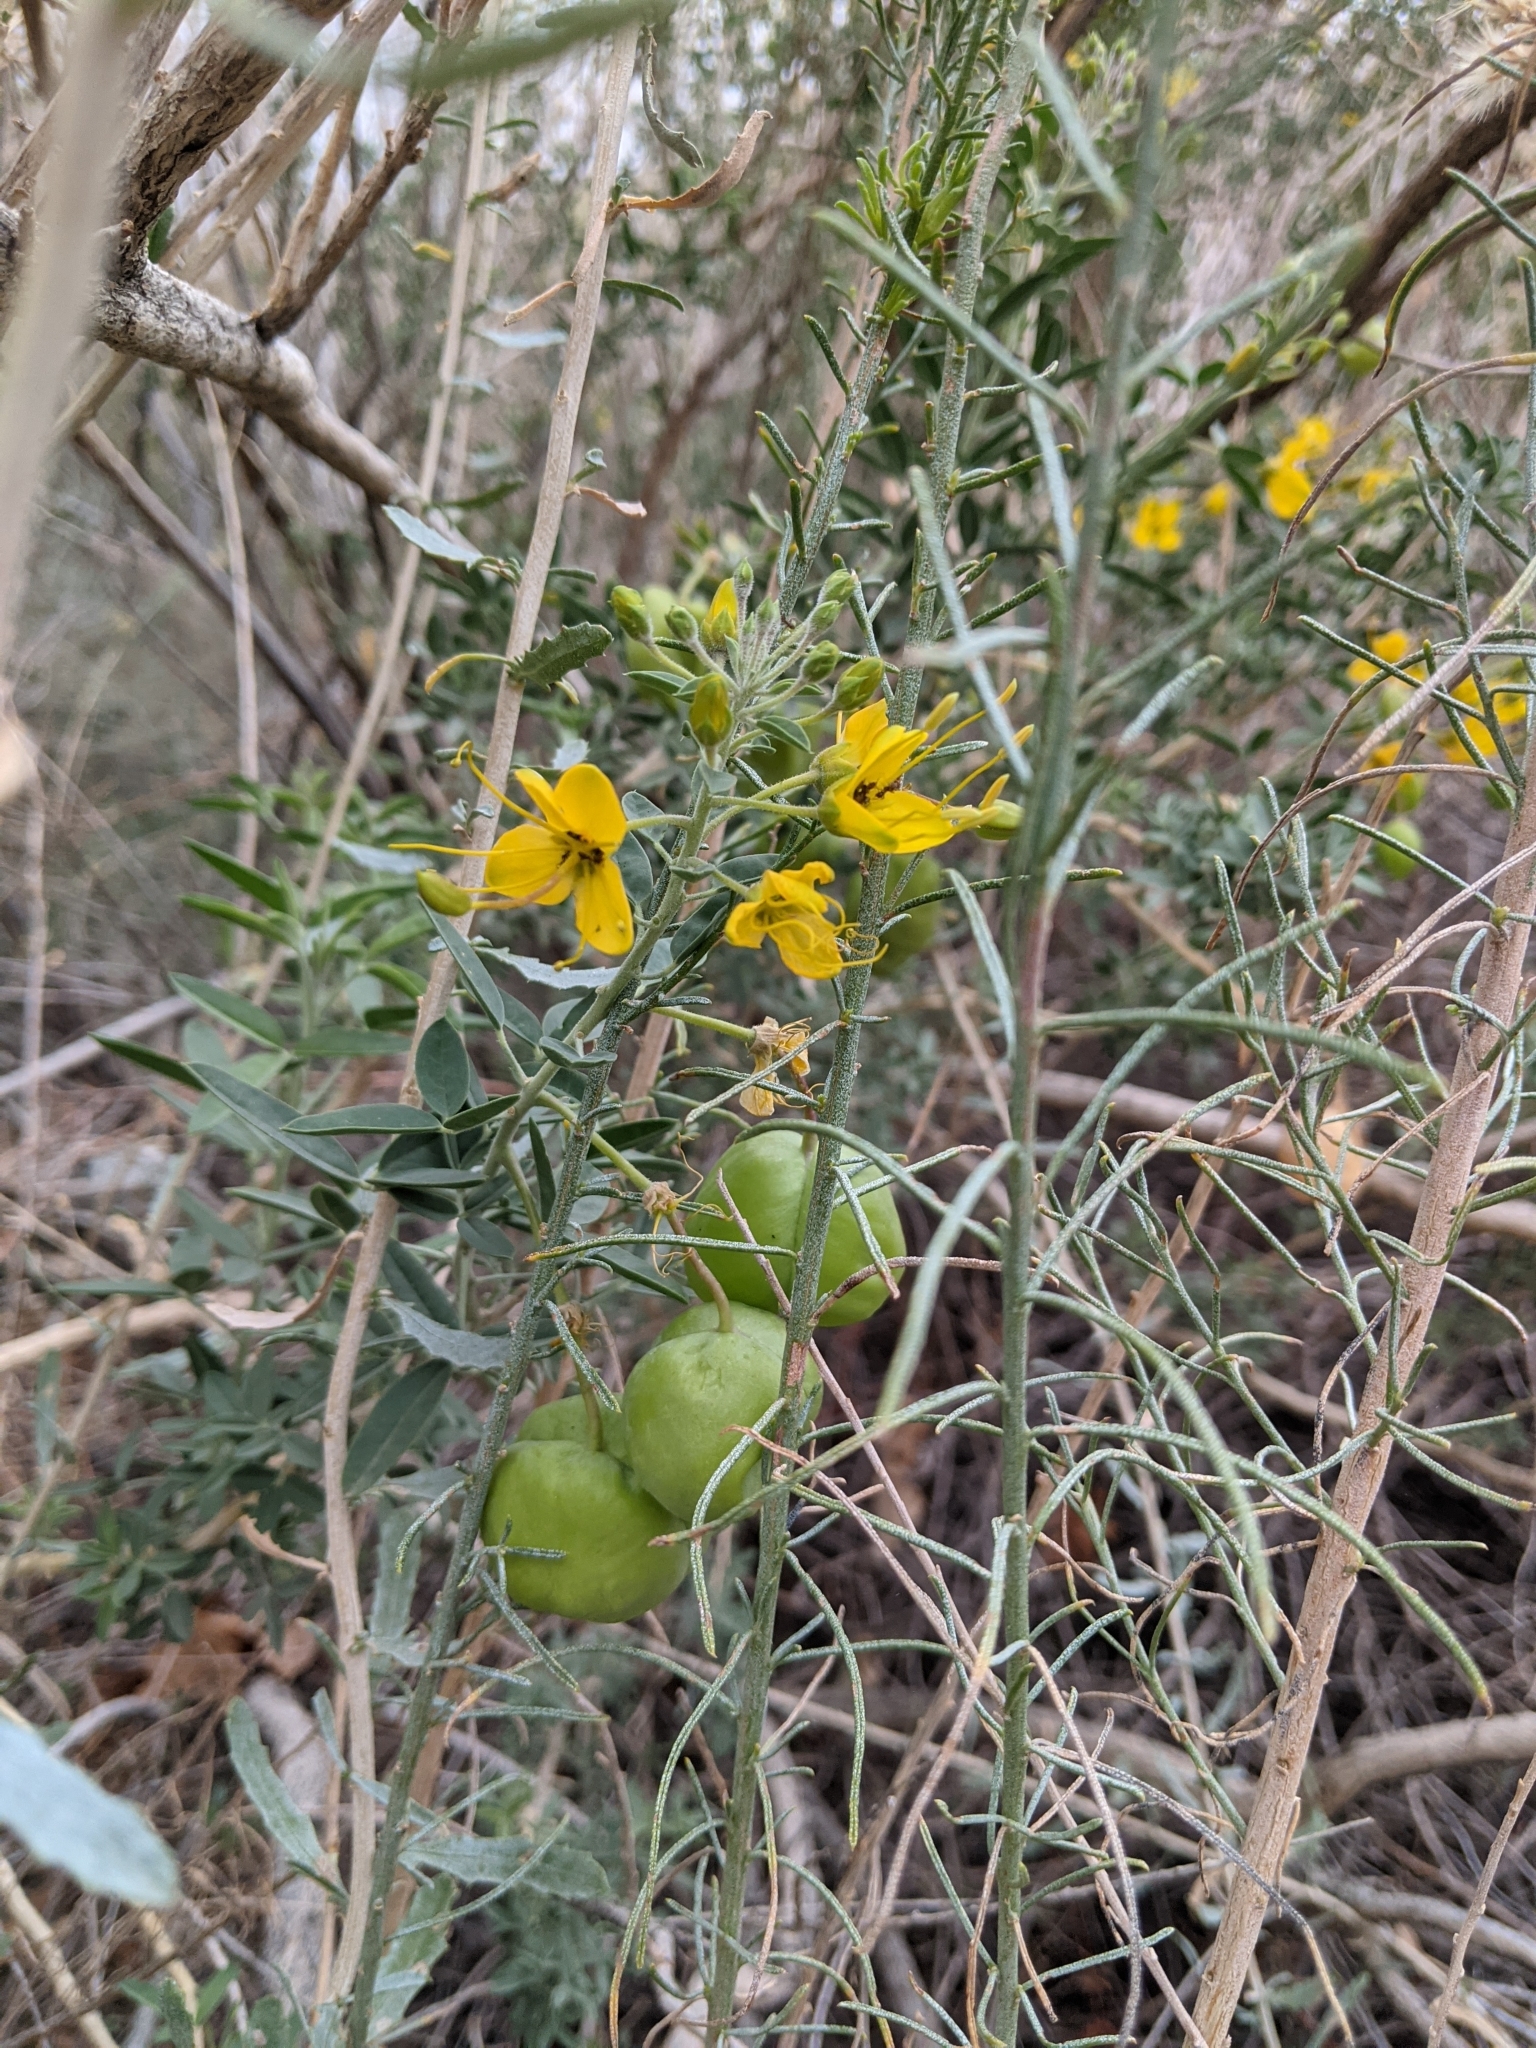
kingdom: Plantae
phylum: Tracheophyta
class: Magnoliopsida
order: Brassicales
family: Cleomaceae
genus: Cleomella
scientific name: Cleomella arborea
